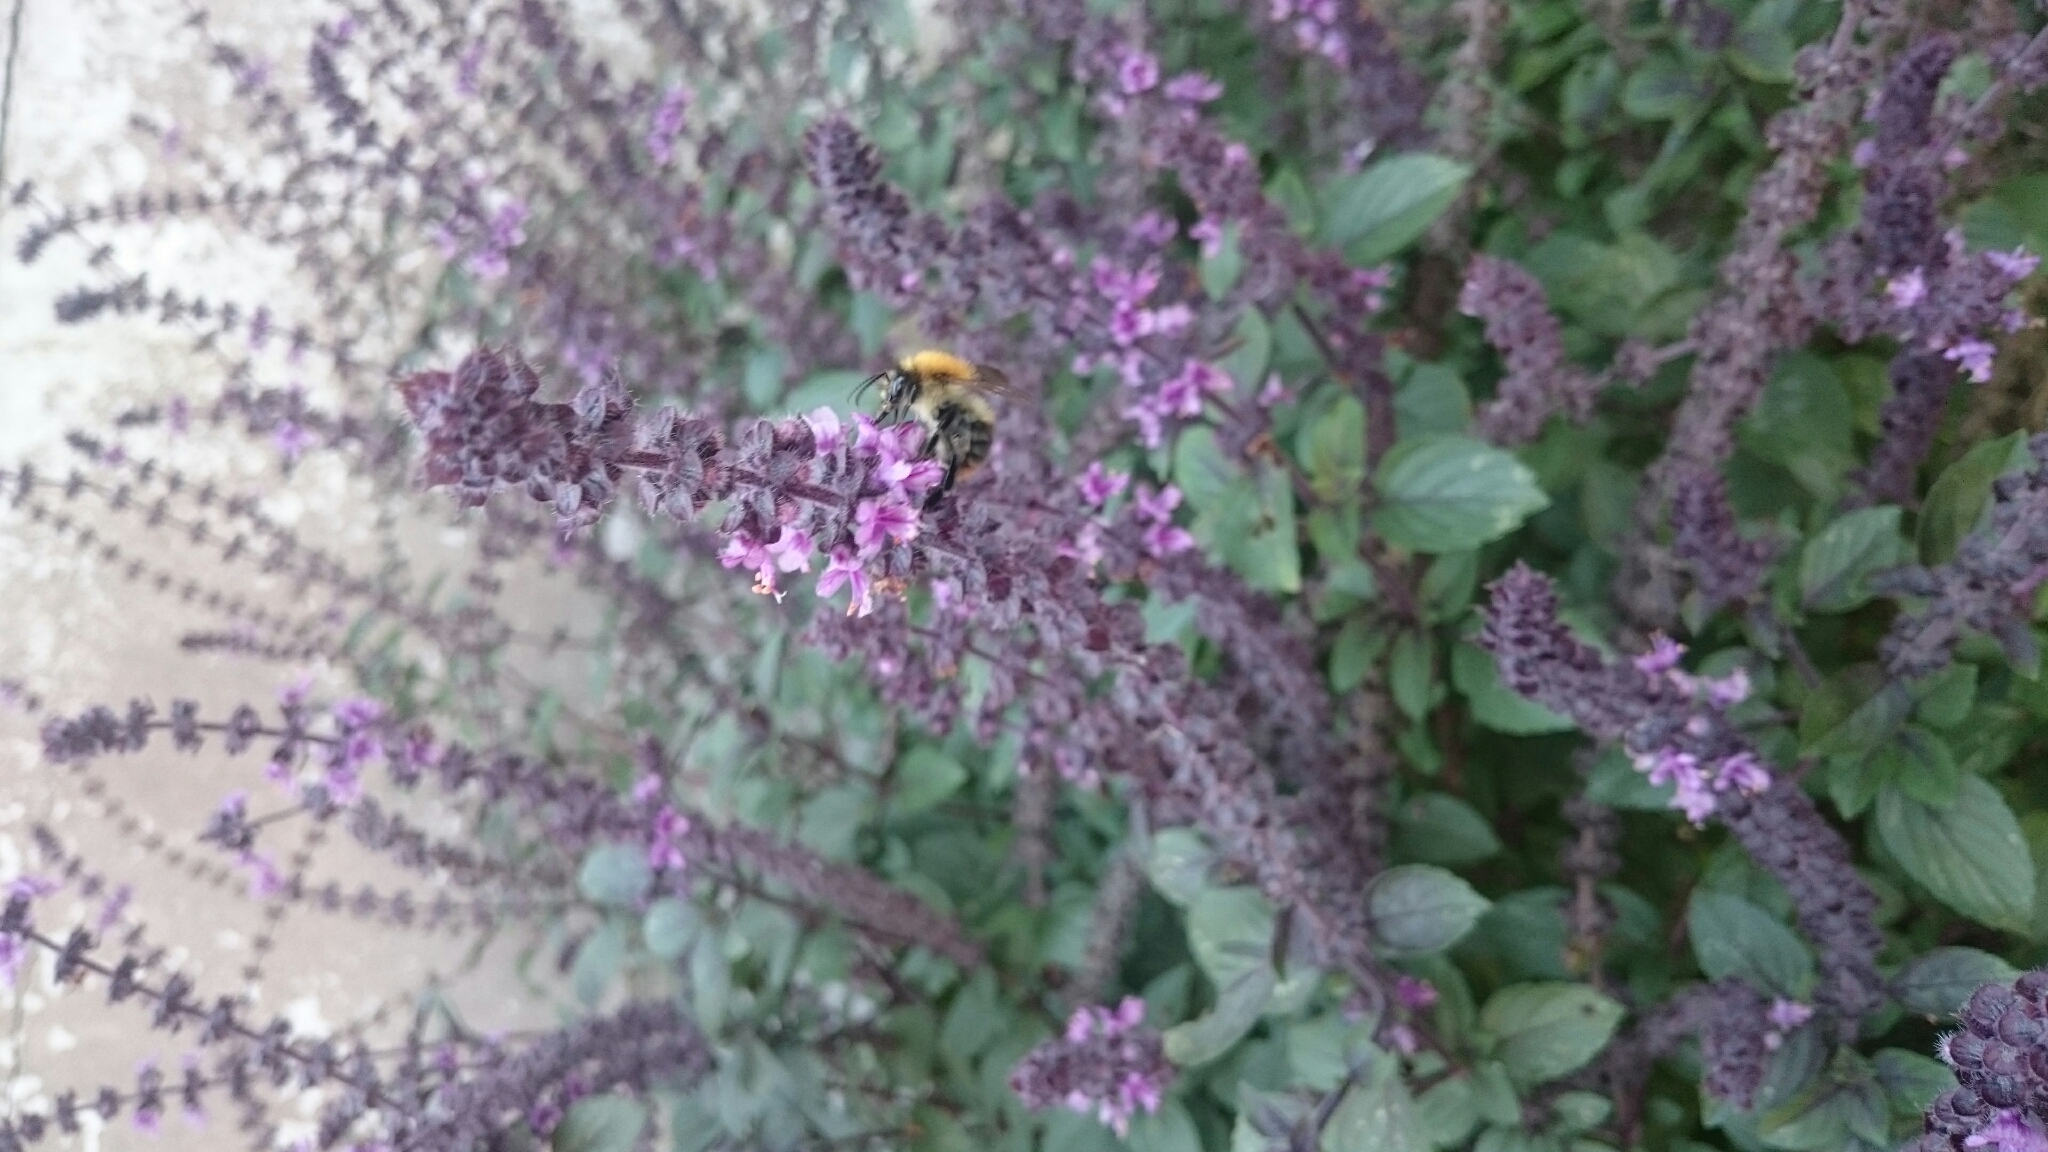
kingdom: Animalia
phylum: Arthropoda
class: Insecta
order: Hymenoptera
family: Apidae
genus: Bombus
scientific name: Bombus pascuorum
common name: Common carder bee
